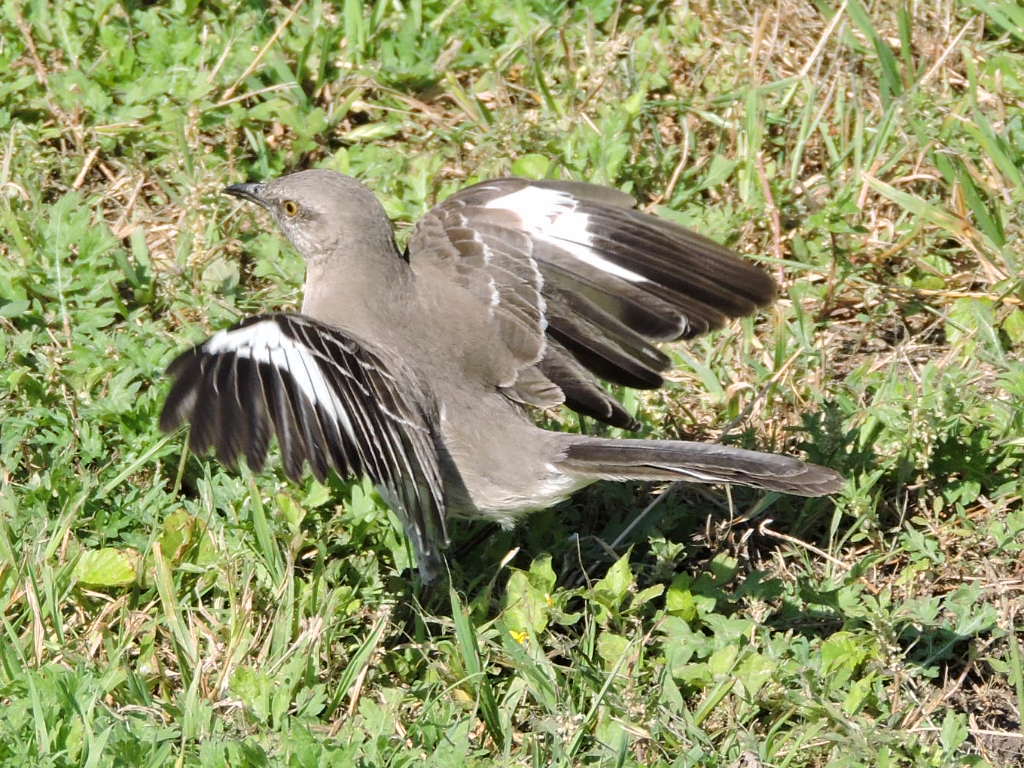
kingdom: Animalia
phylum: Chordata
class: Aves
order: Passeriformes
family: Mimidae
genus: Mimus
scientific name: Mimus polyglottos
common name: Northern mockingbird
